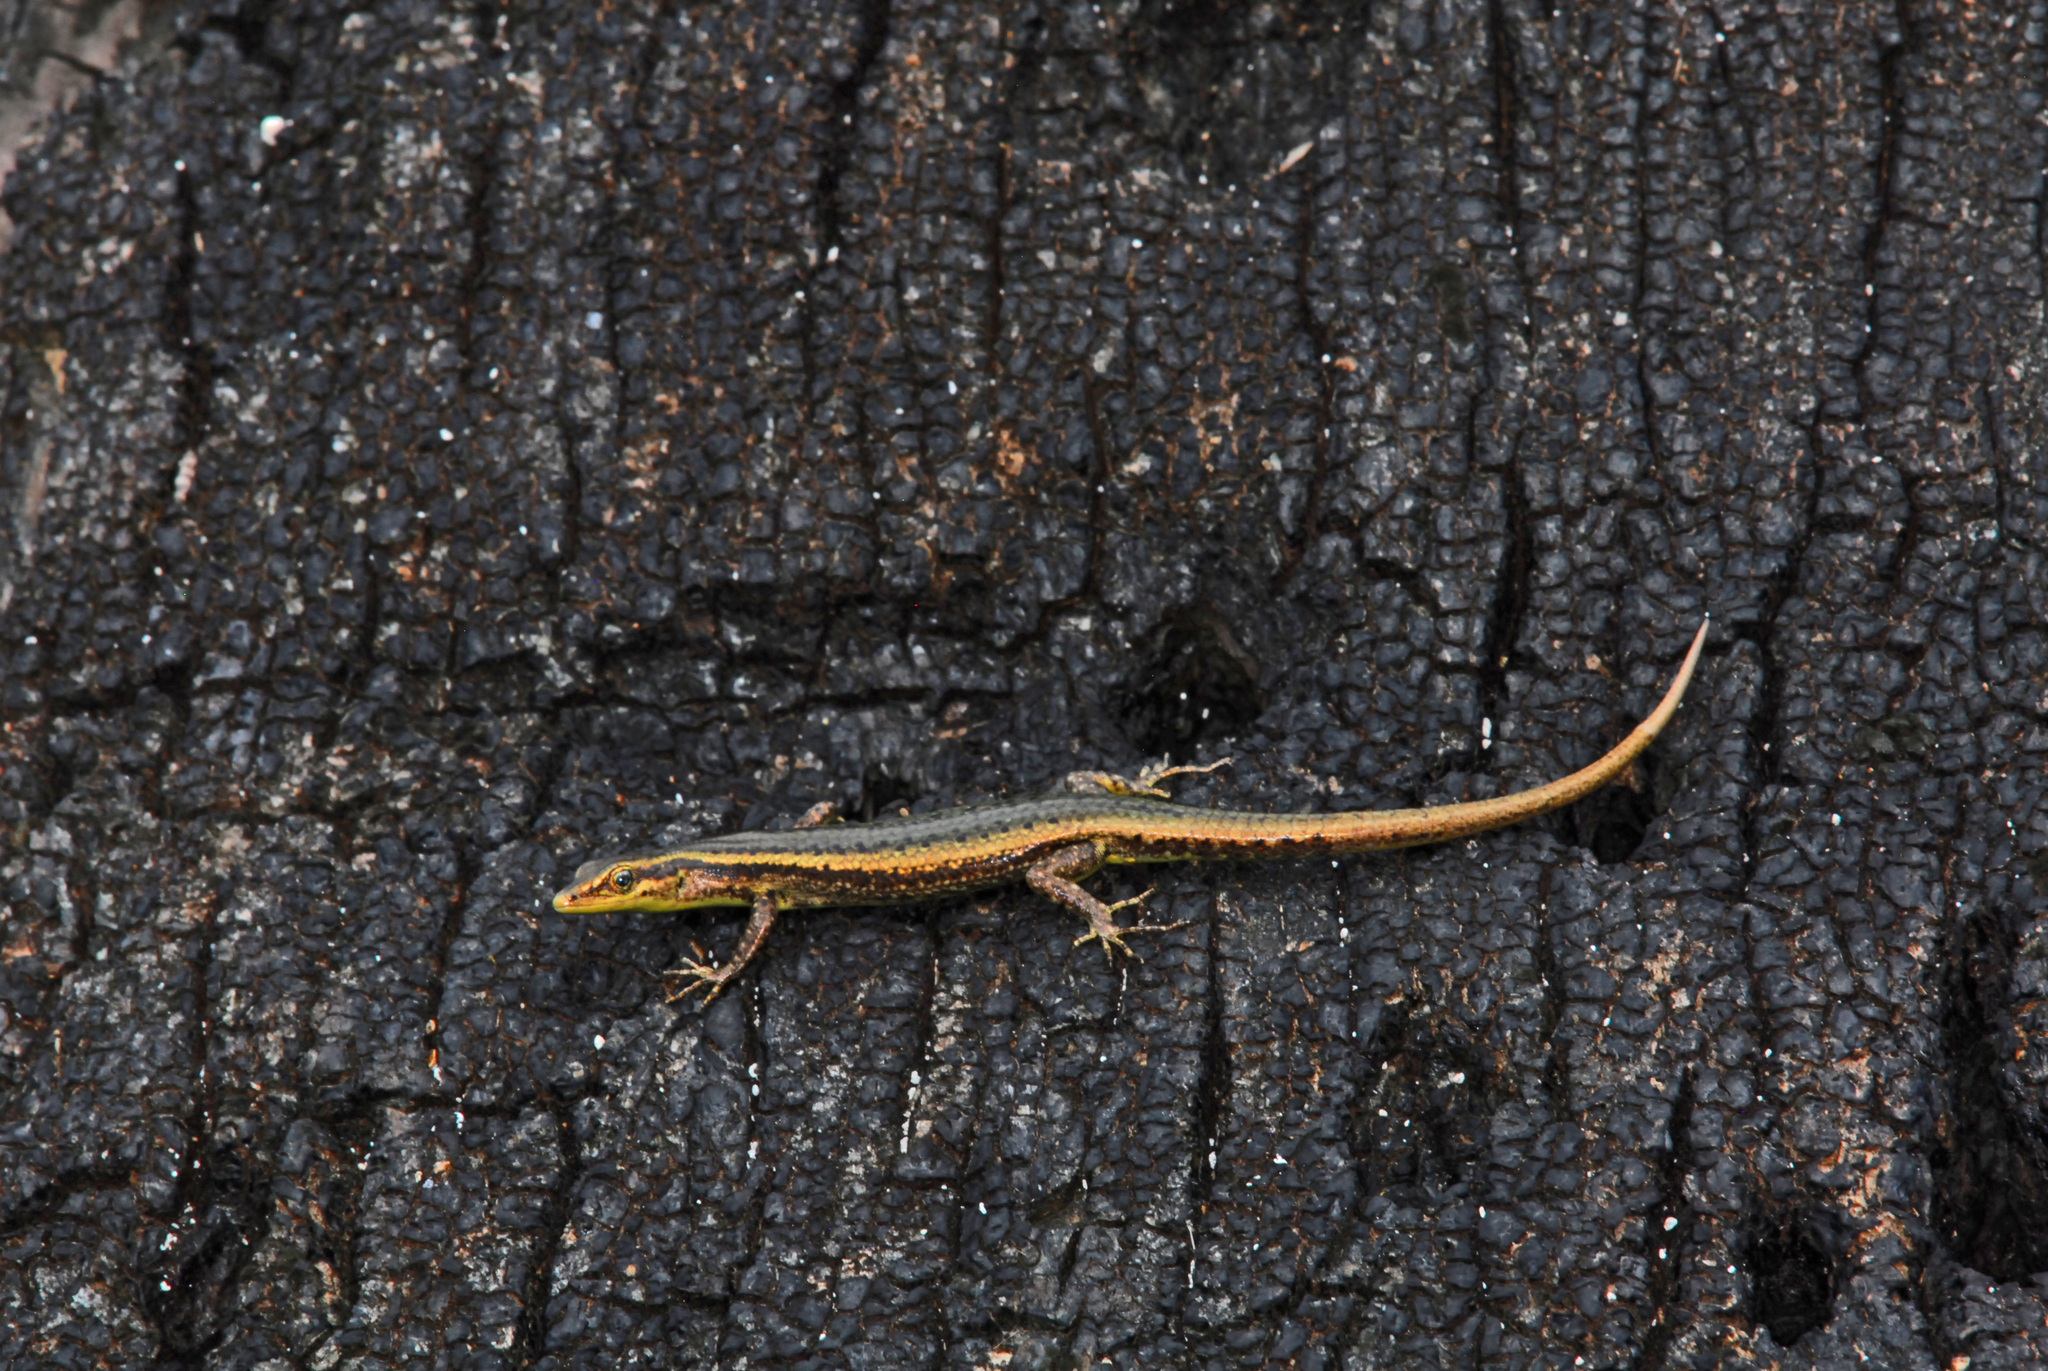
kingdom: Animalia
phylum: Chordata
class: Squamata
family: Scincidae
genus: Cryptoblepharus
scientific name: Cryptoblepharus poecilopleurus
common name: Mottled snake-eyed skink
